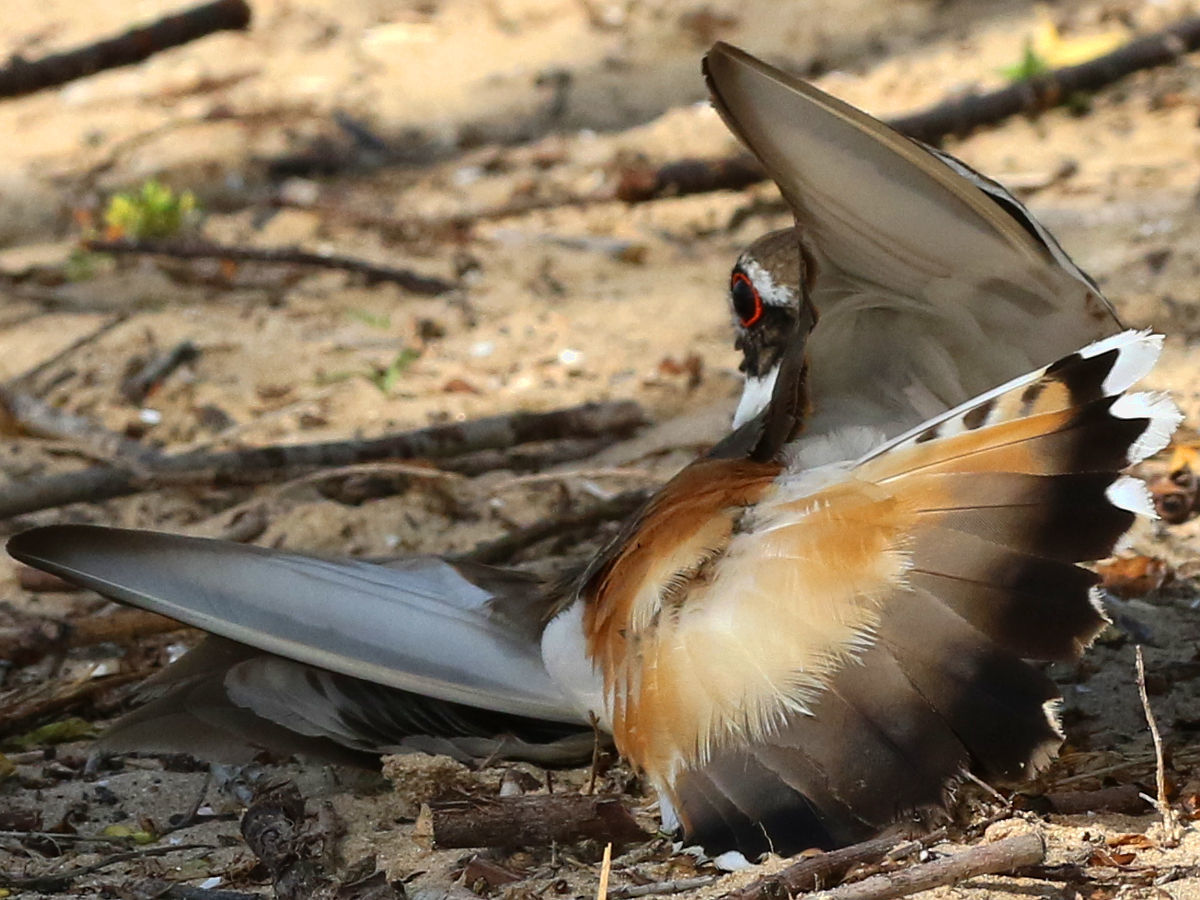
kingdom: Animalia
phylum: Chordata
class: Aves
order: Charadriiformes
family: Charadriidae
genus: Charadrius
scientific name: Charadrius vociferus
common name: Killdeer
